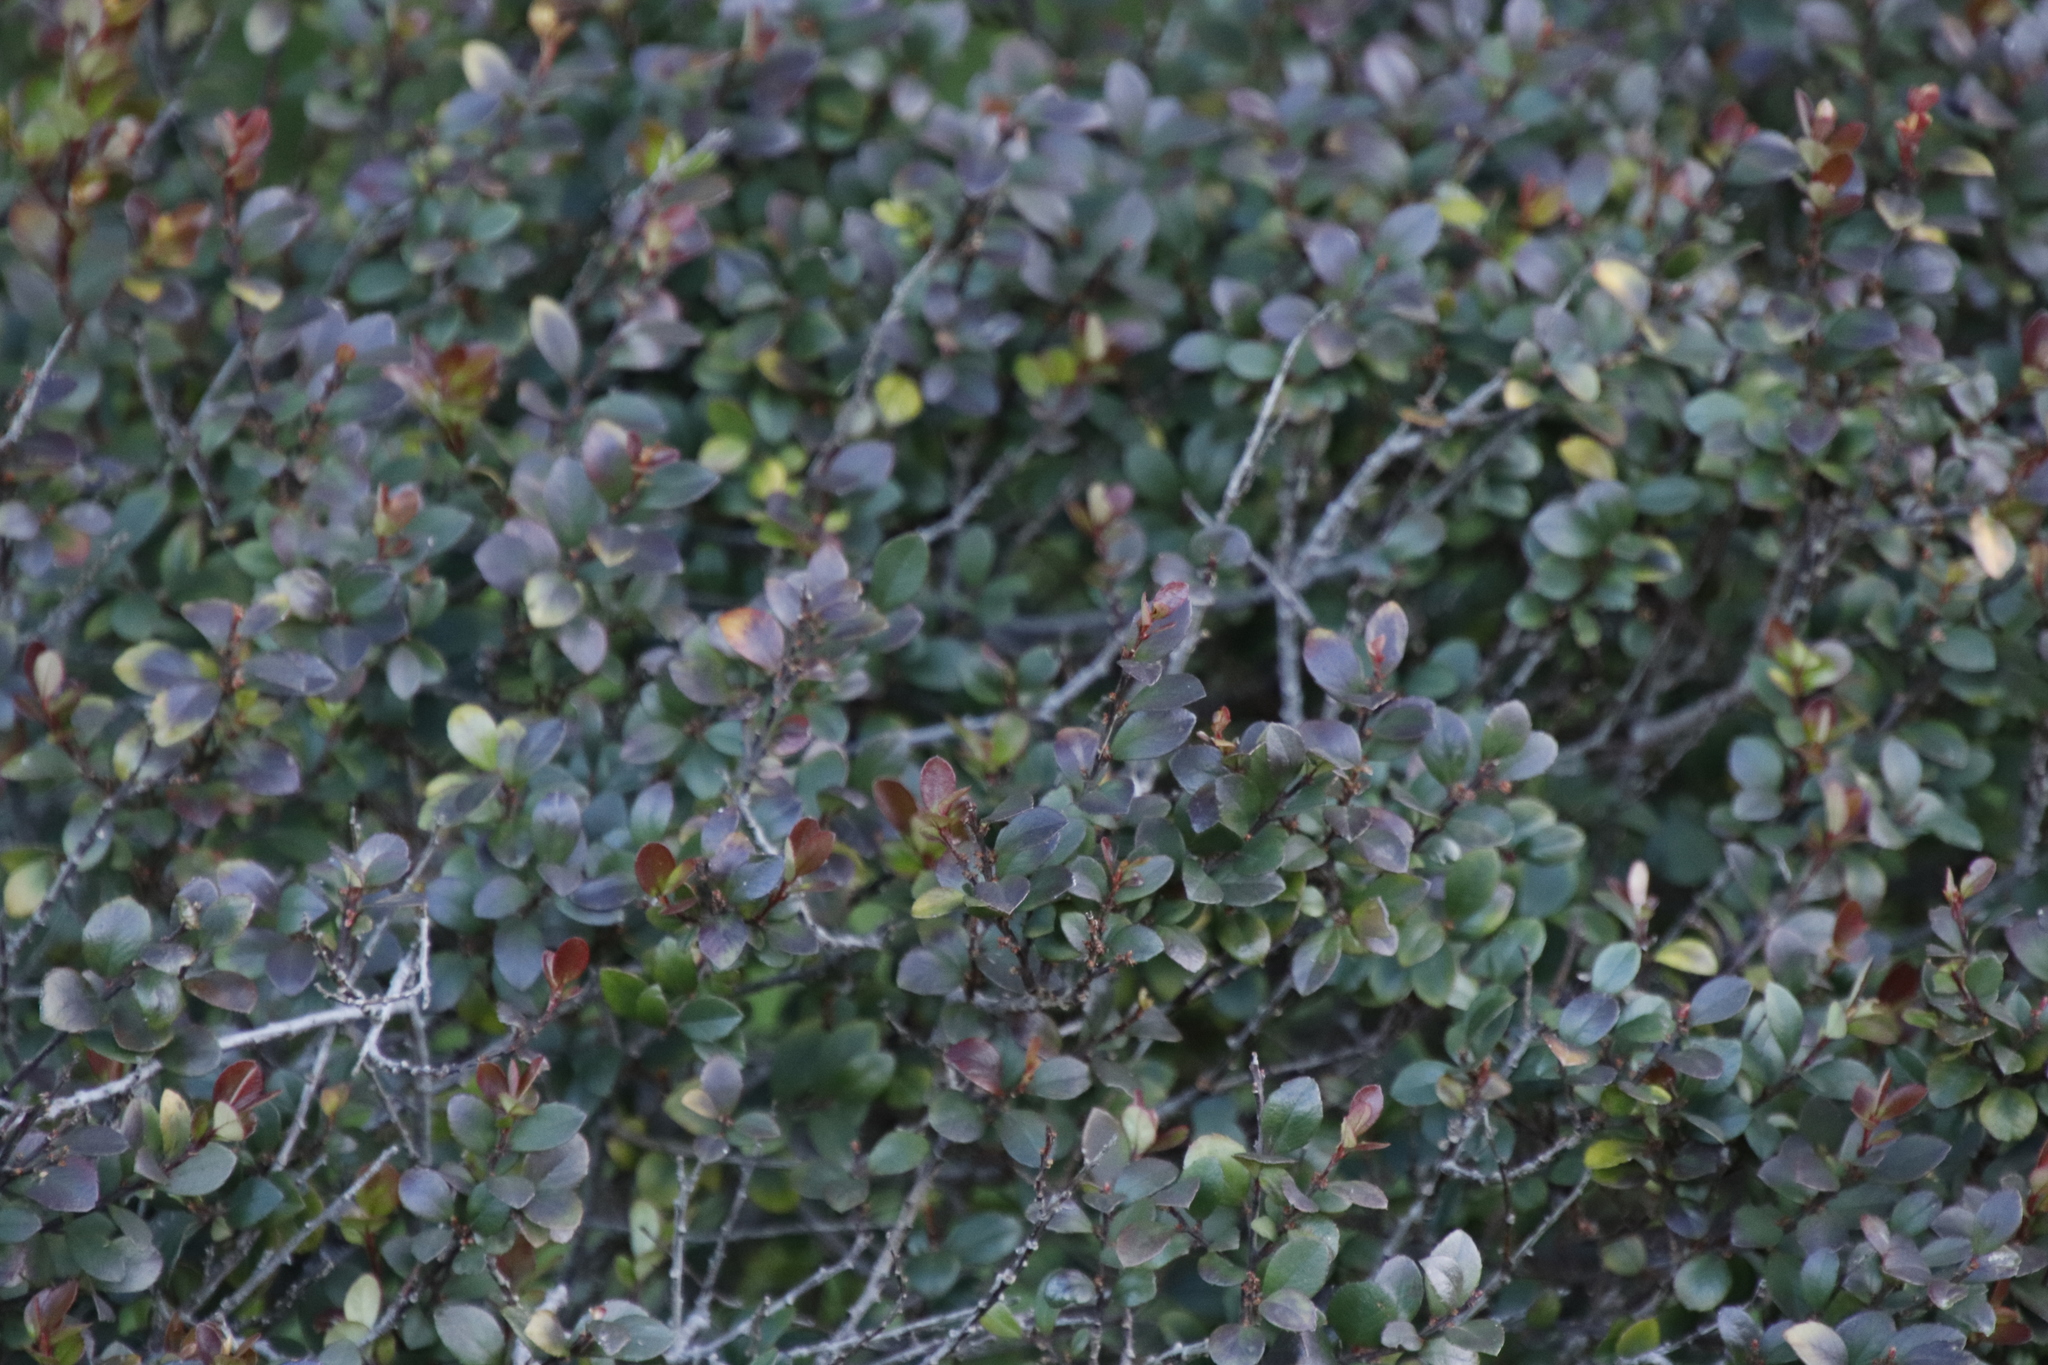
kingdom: Plantae
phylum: Tracheophyta
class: Magnoliopsida
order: Ericales
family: Primulaceae
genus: Myrsine
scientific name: Myrsine africana
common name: African-boxwood
